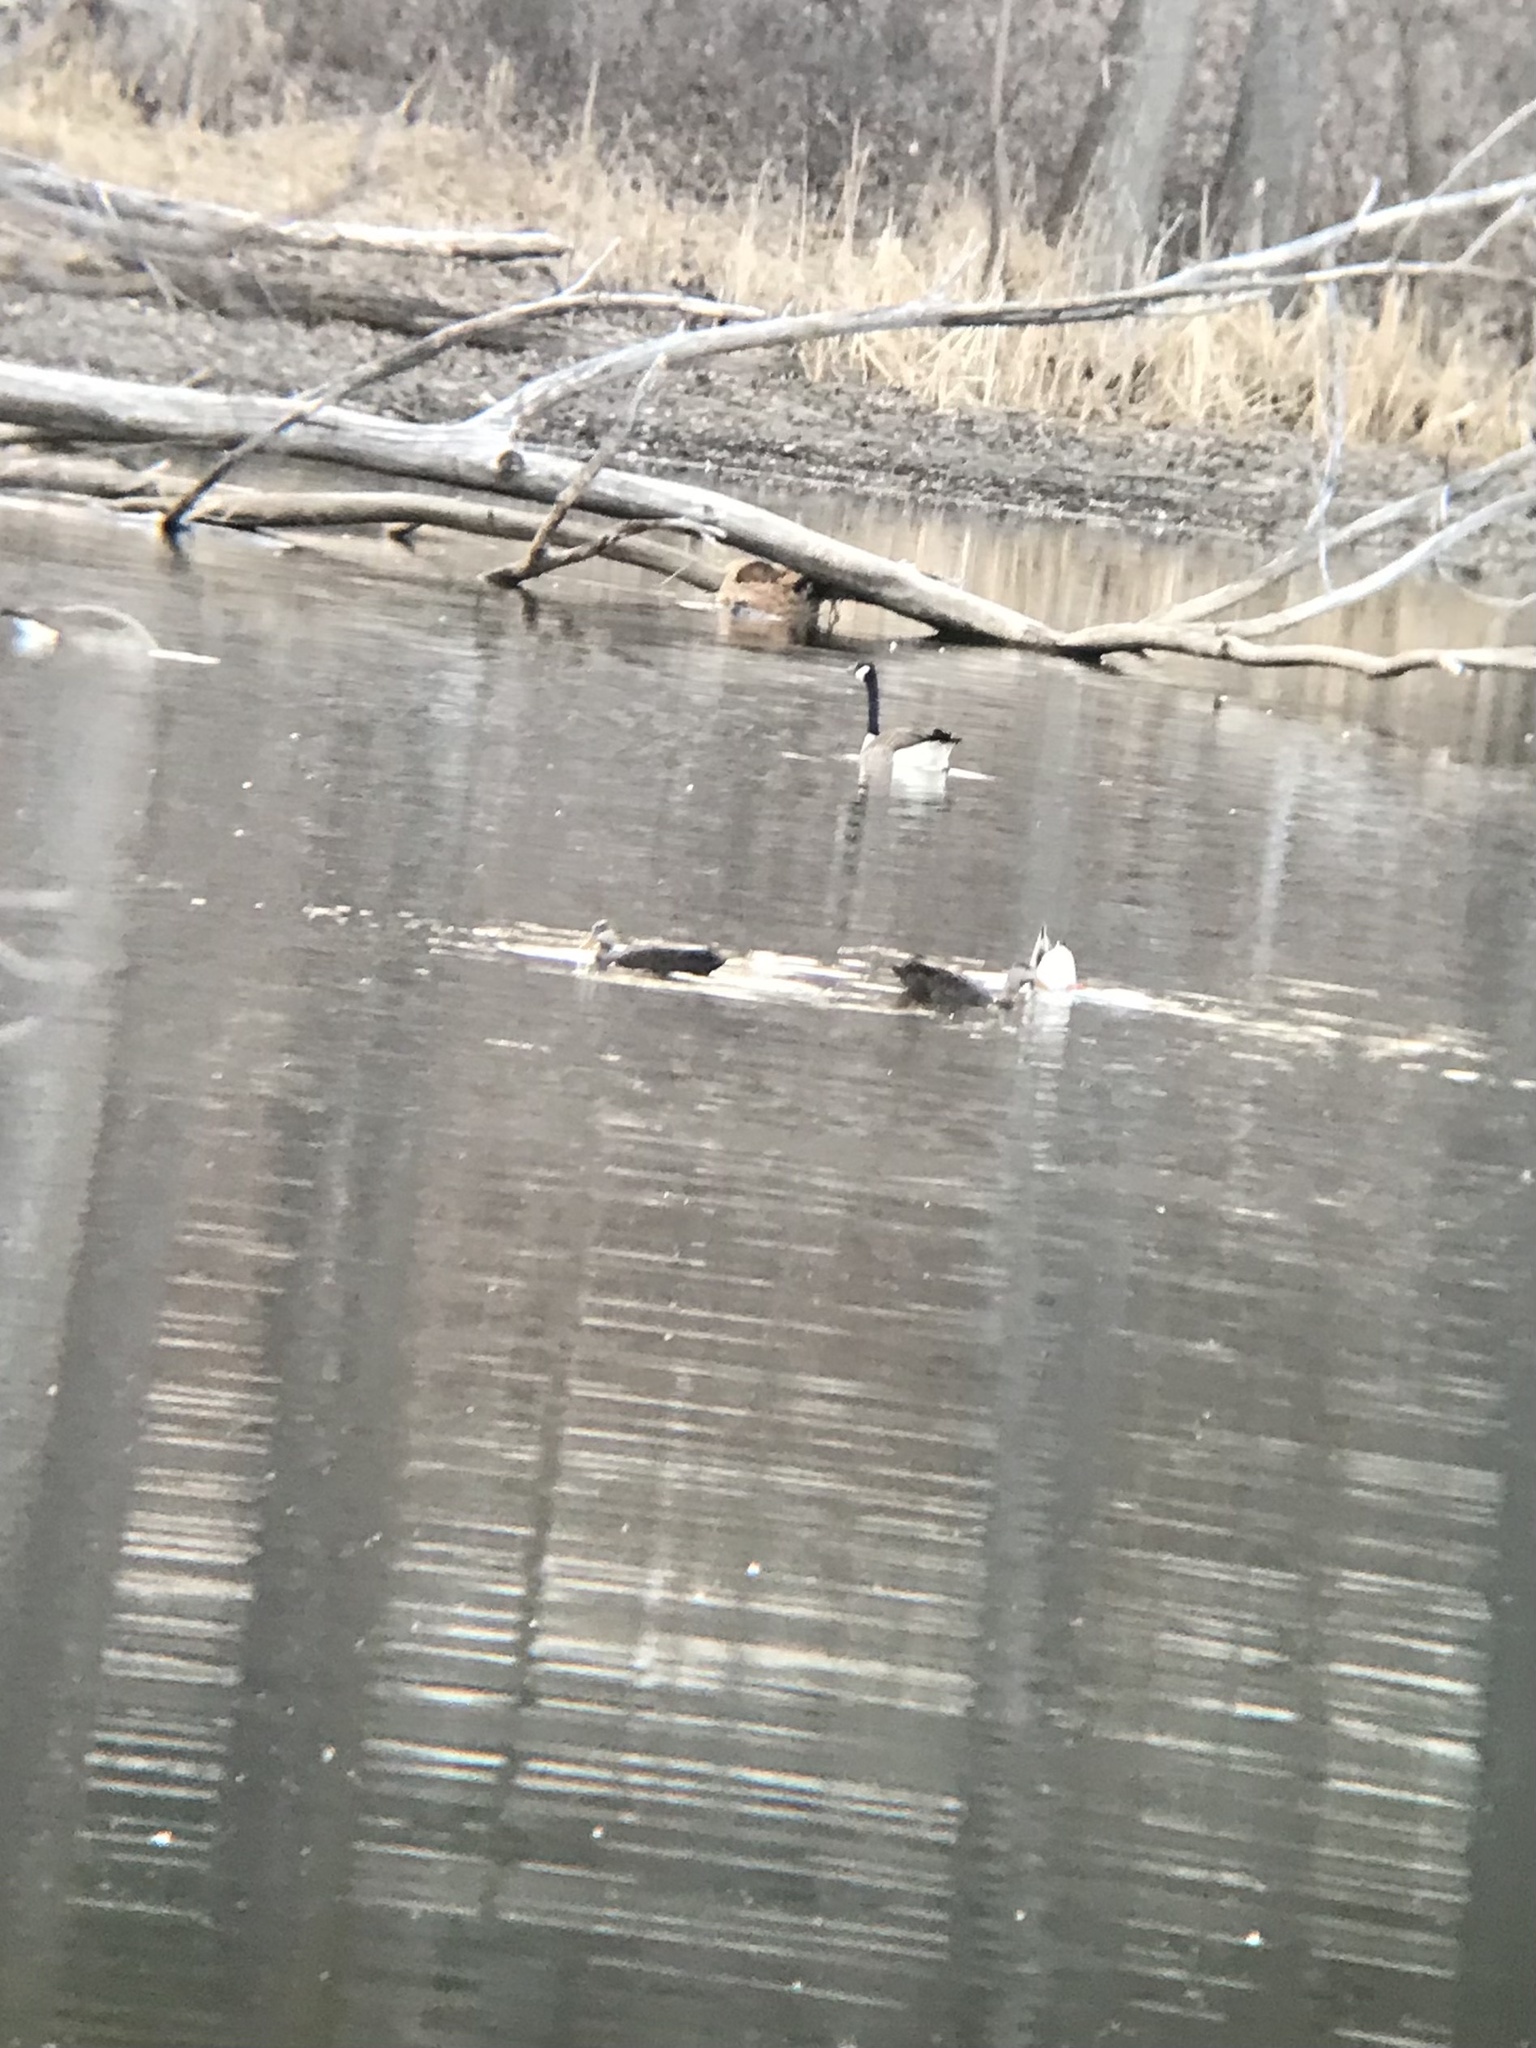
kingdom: Animalia
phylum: Chordata
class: Aves
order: Anseriformes
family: Anatidae
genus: Anas
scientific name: Anas rubripes
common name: American black duck
